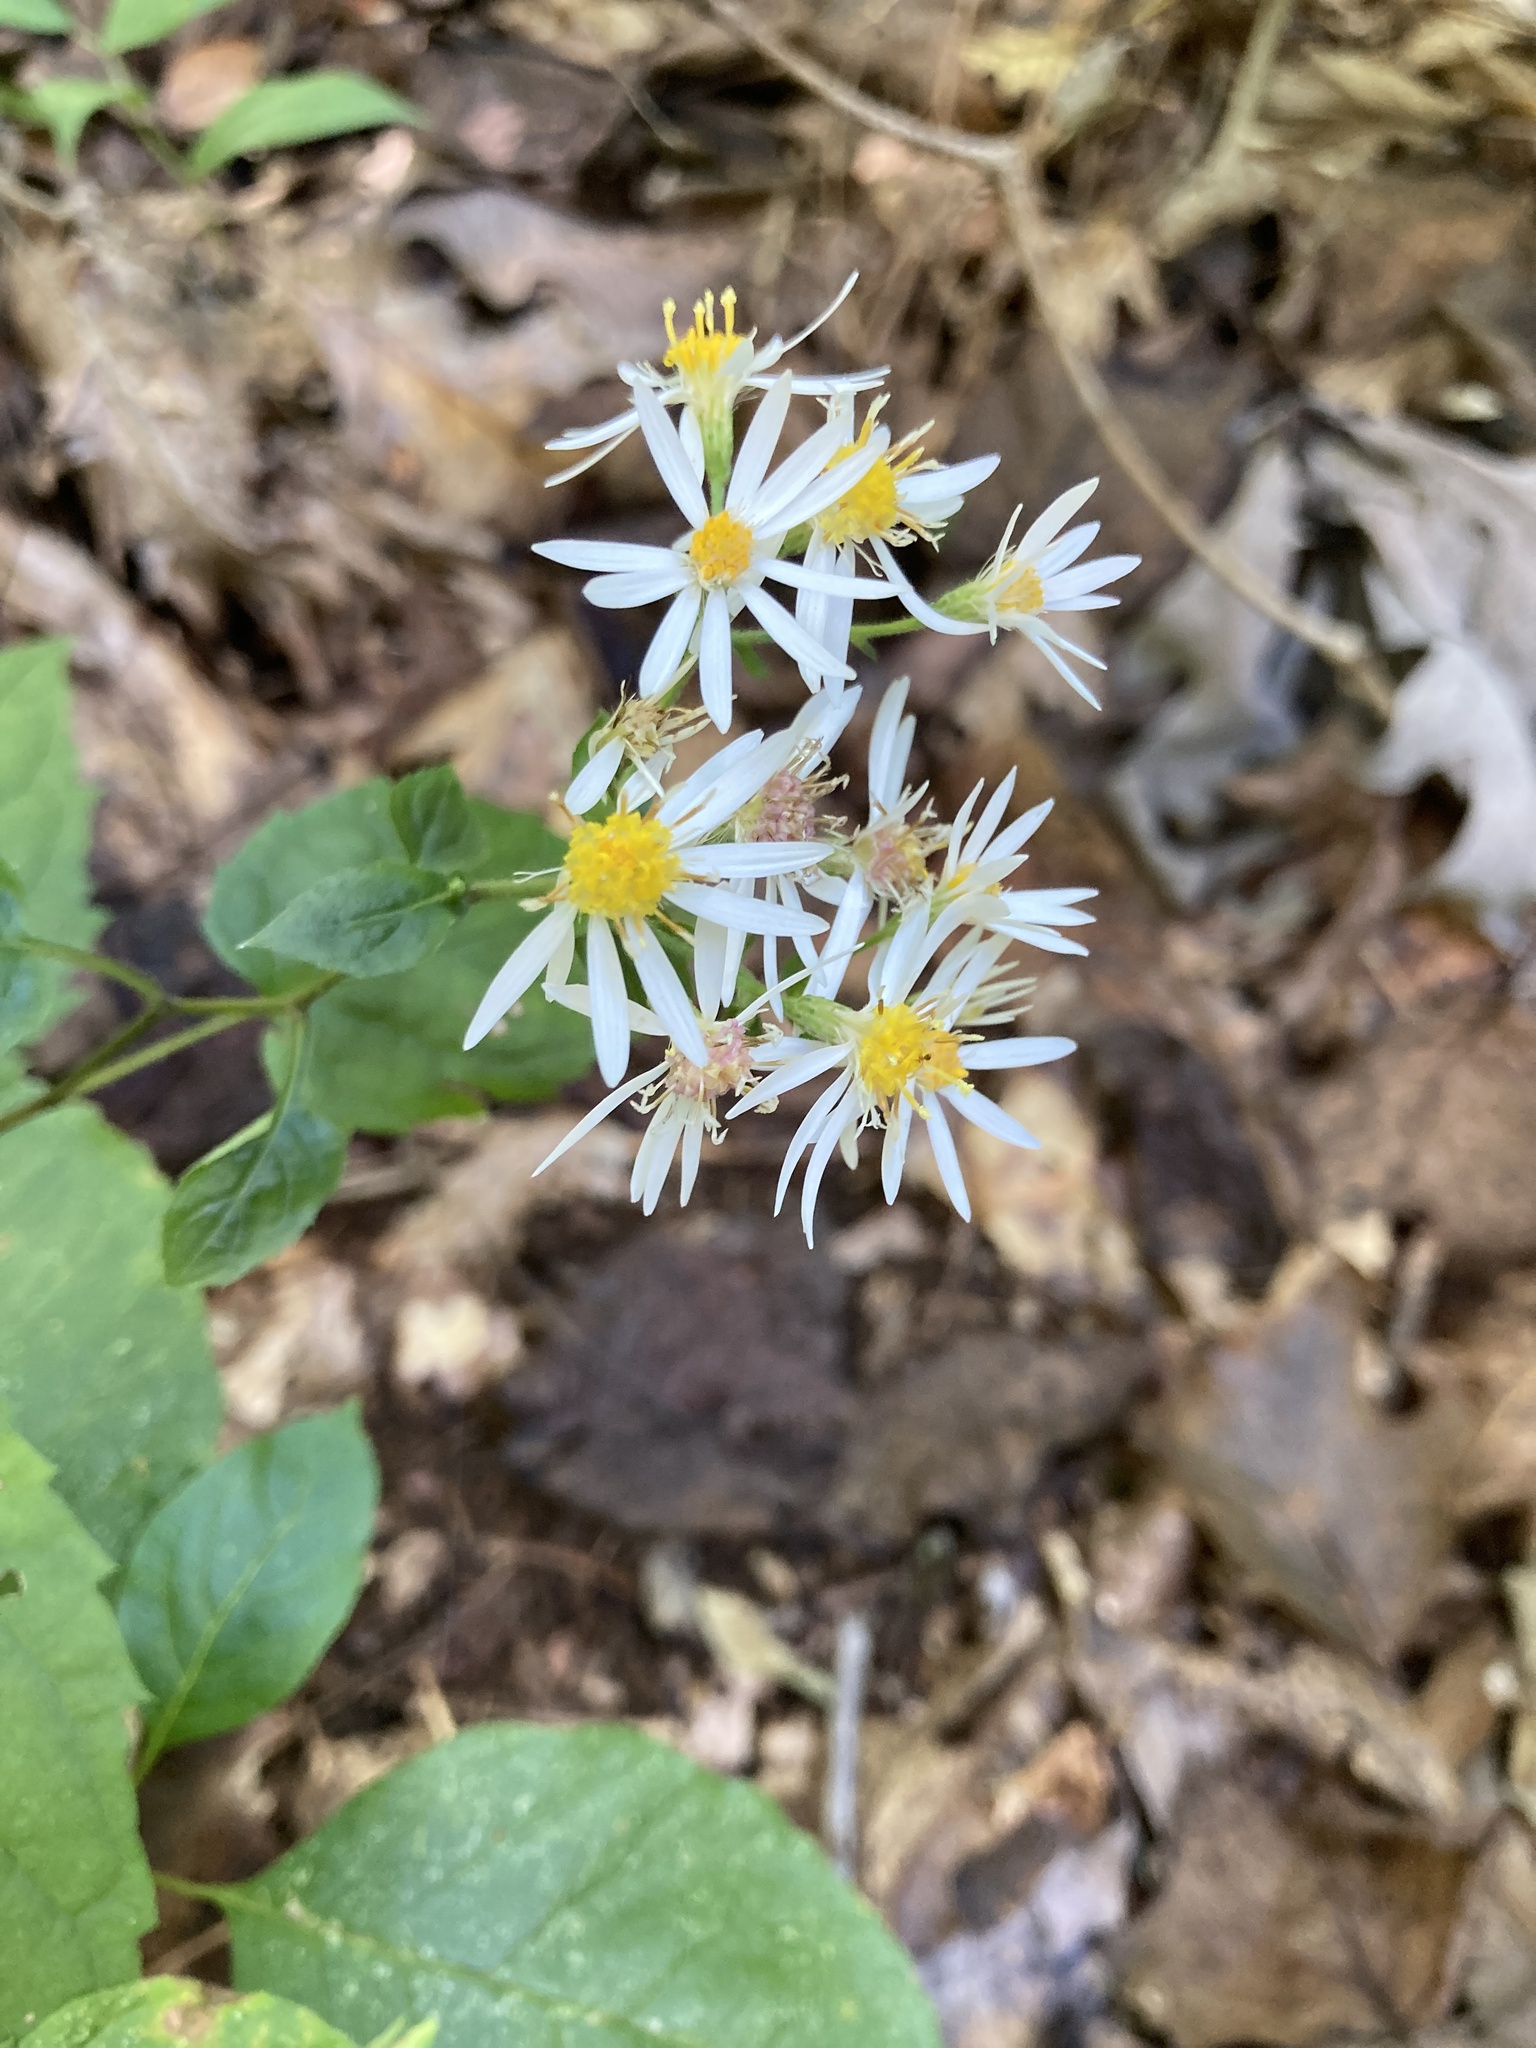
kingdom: Plantae
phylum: Tracheophyta
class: Magnoliopsida
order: Asterales
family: Asteraceae
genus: Eurybia
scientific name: Eurybia divaricata
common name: White wood aster
